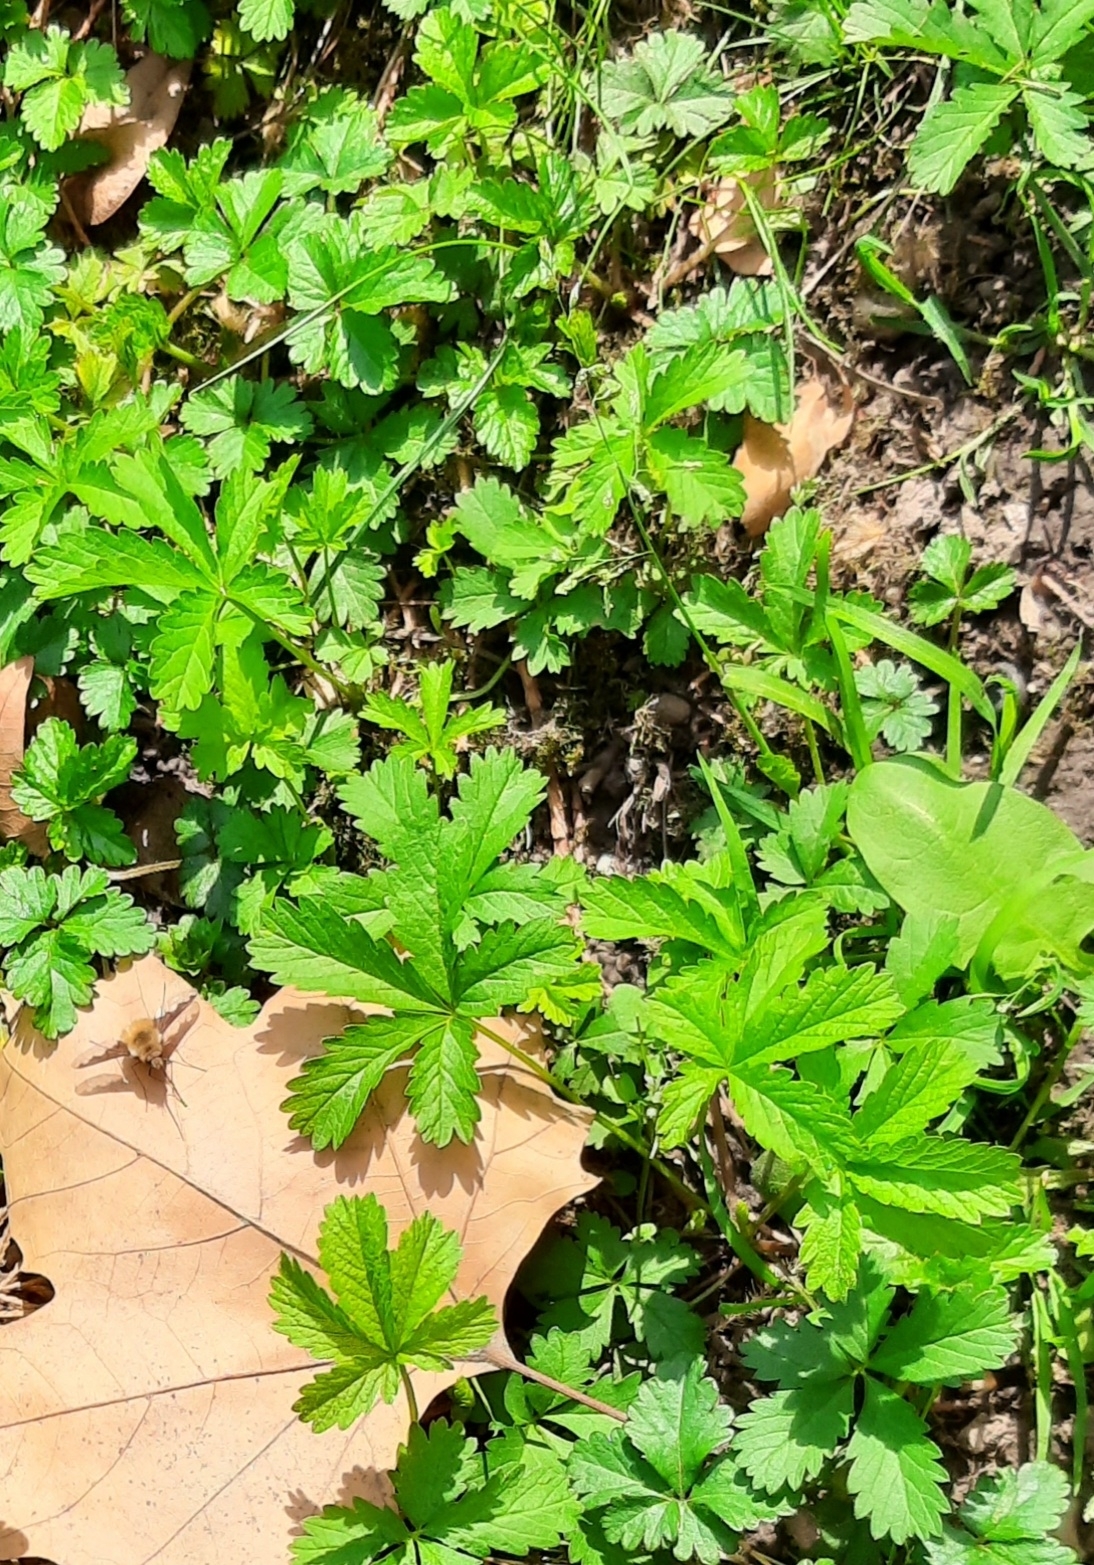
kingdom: Plantae
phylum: Tracheophyta
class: Magnoliopsida
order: Rosales
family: Rosaceae
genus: Potentilla
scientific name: Potentilla reptans
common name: Creeping cinquefoil
